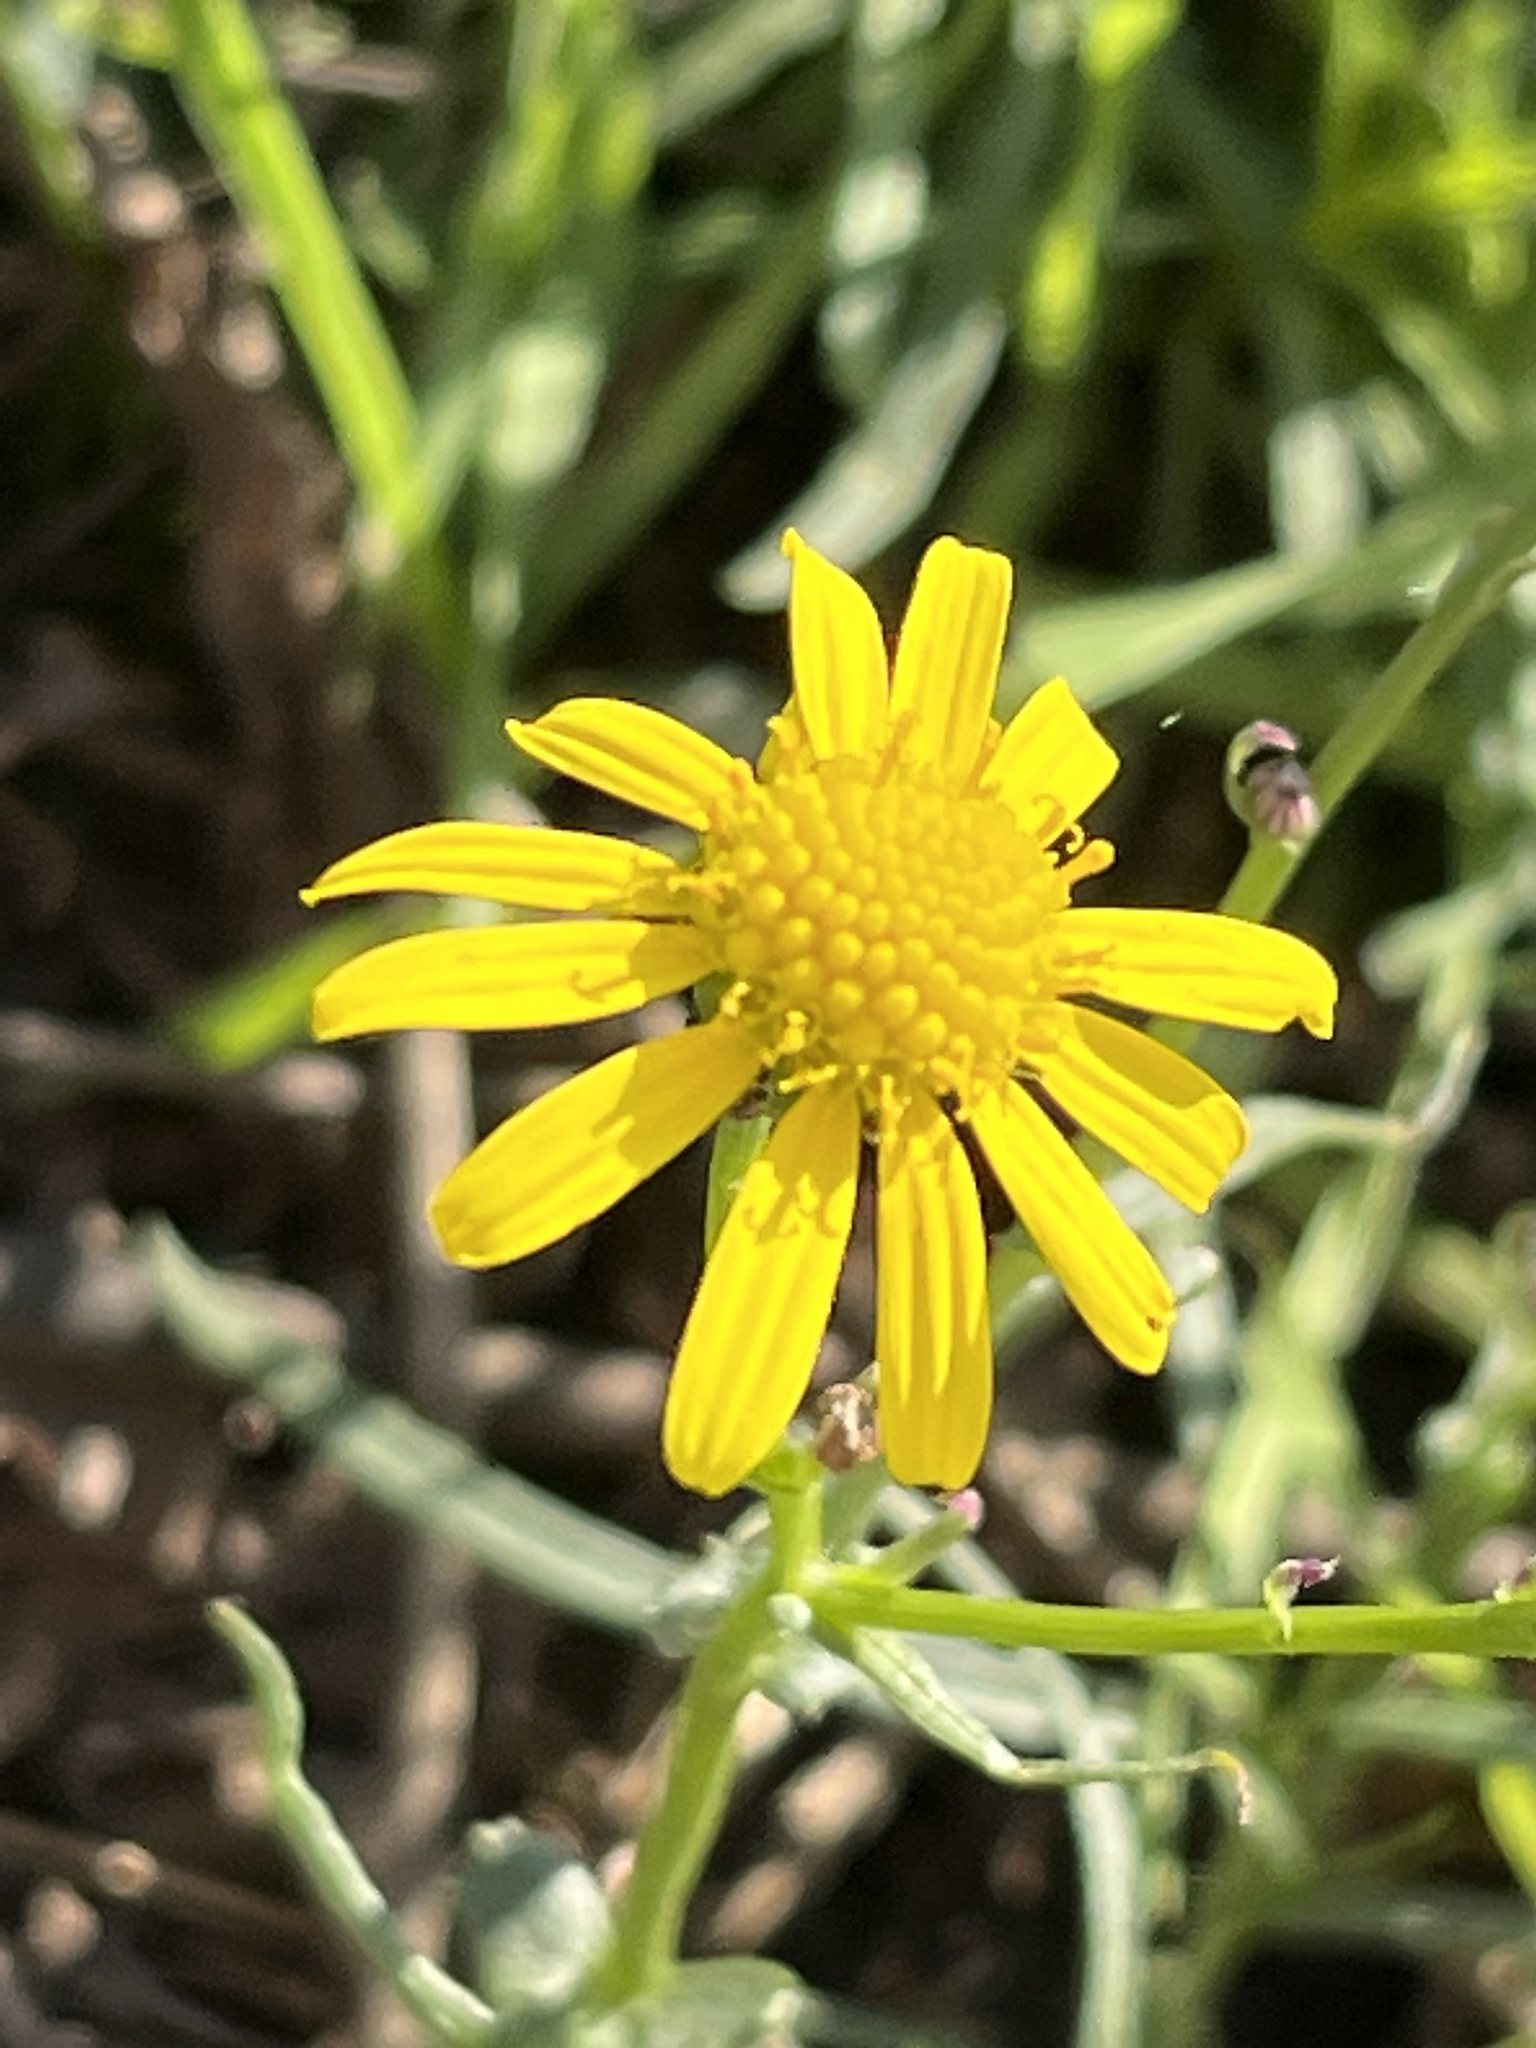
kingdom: Plantae
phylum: Tracheophyta
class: Magnoliopsida
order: Asterales
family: Asteraceae
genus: Senecio
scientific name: Senecio inaequidens
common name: Narrow-leaved ragwort
